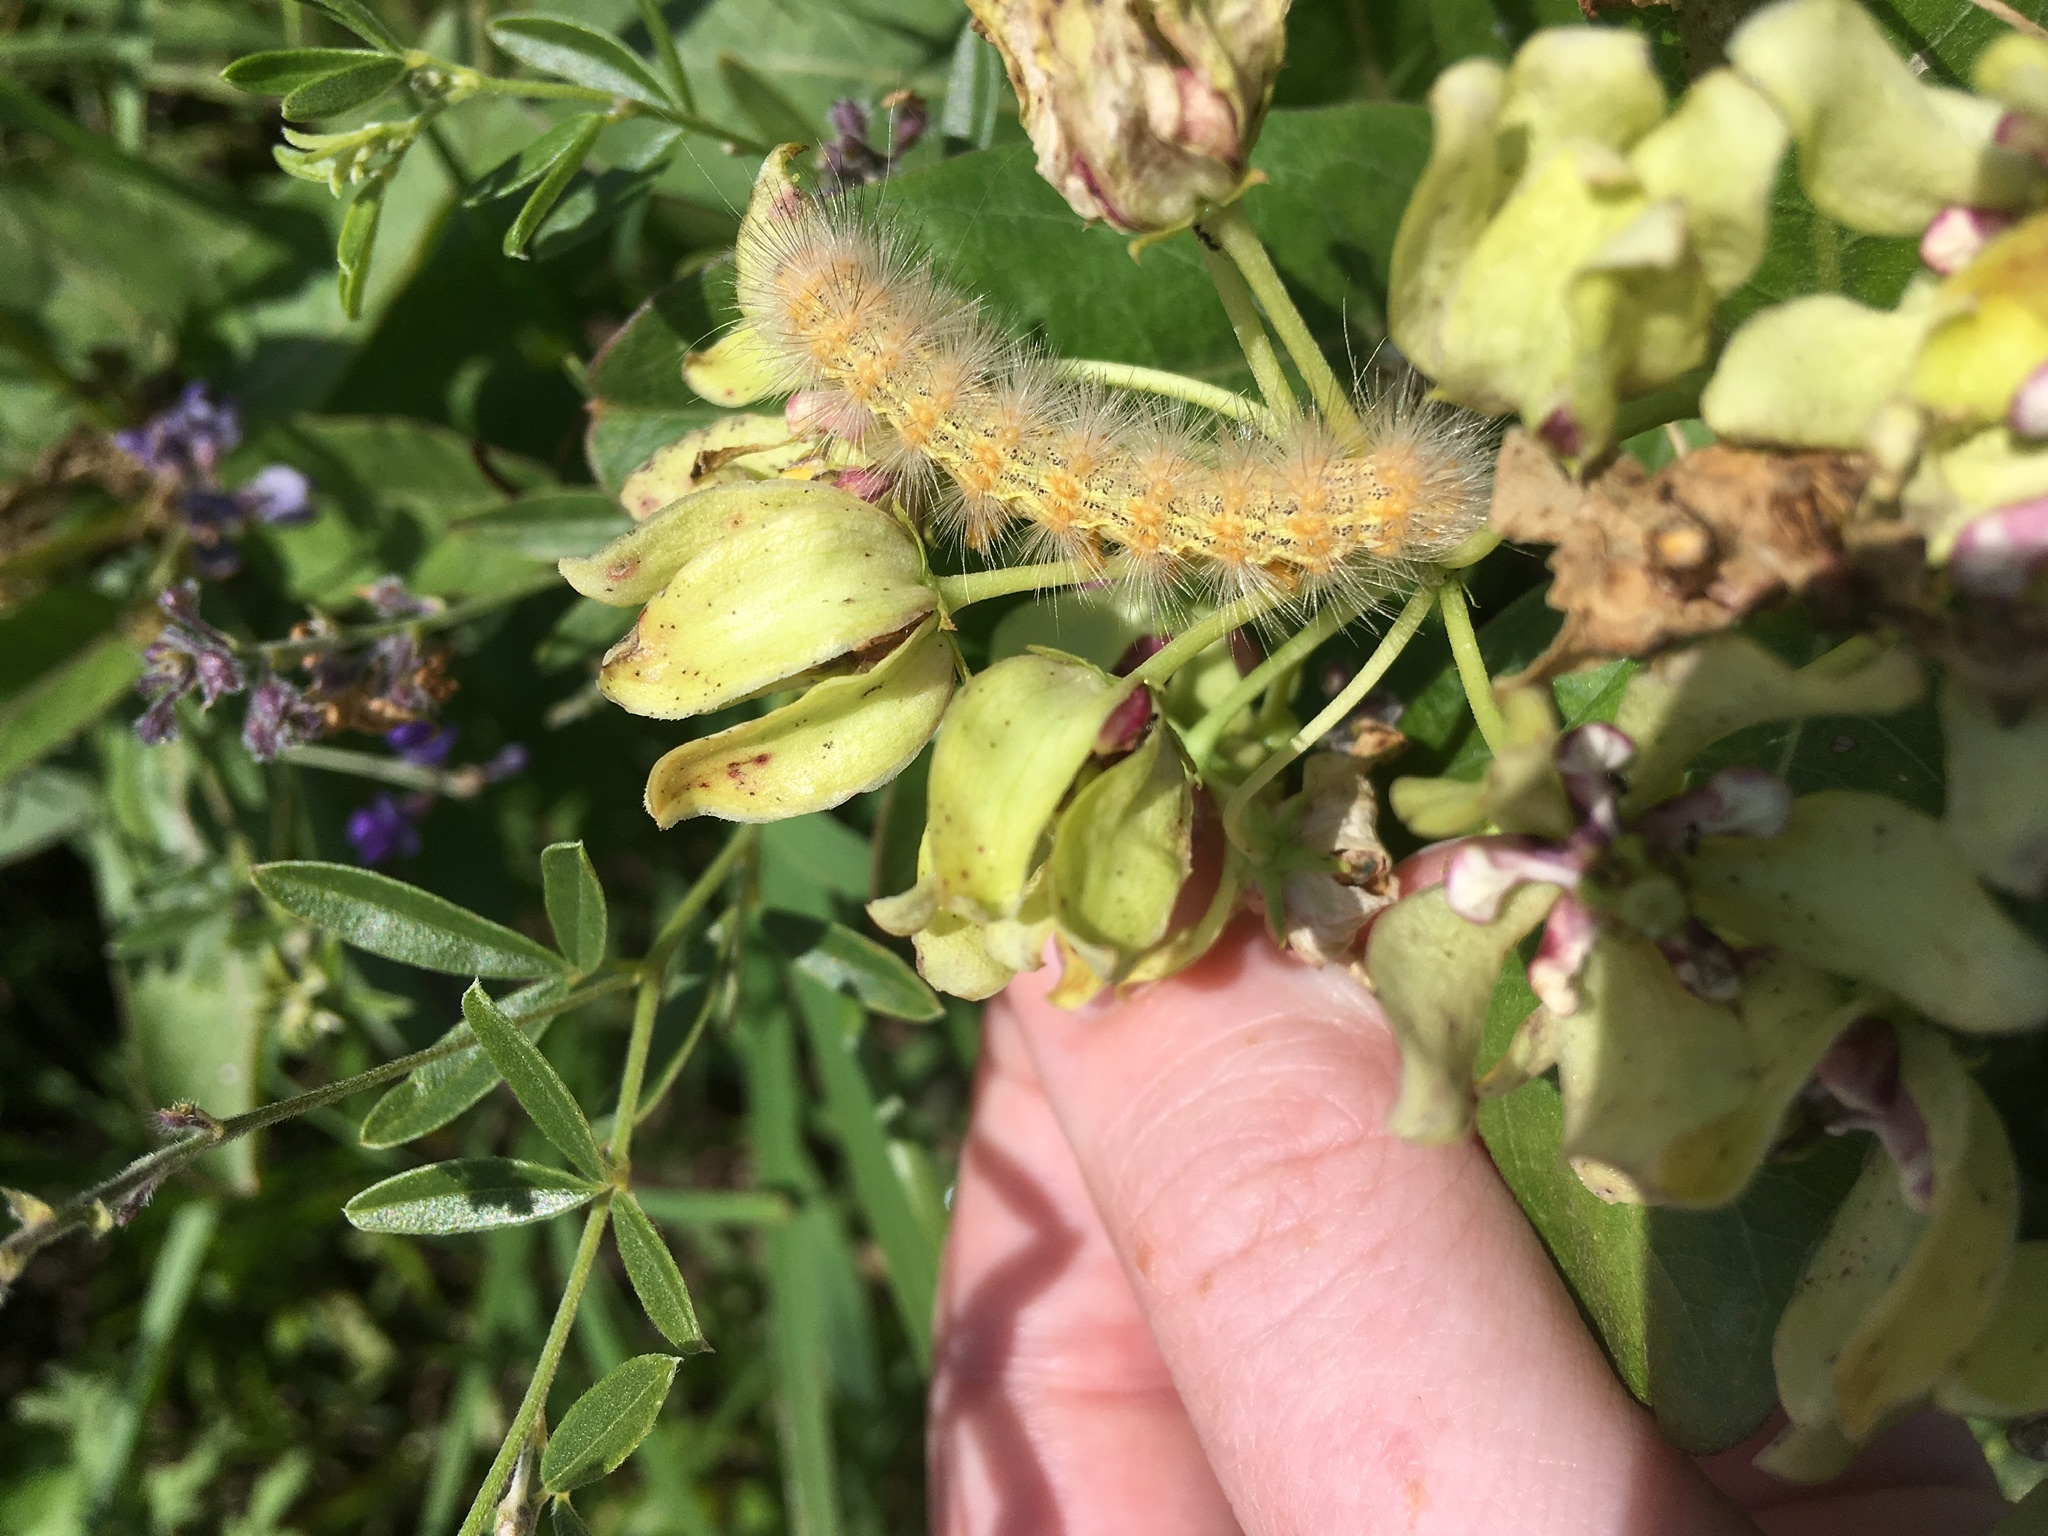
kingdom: Animalia
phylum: Arthropoda
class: Insecta
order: Lepidoptera
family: Erebidae
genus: Estigmene
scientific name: Estigmene acrea
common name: Salt marsh moth
